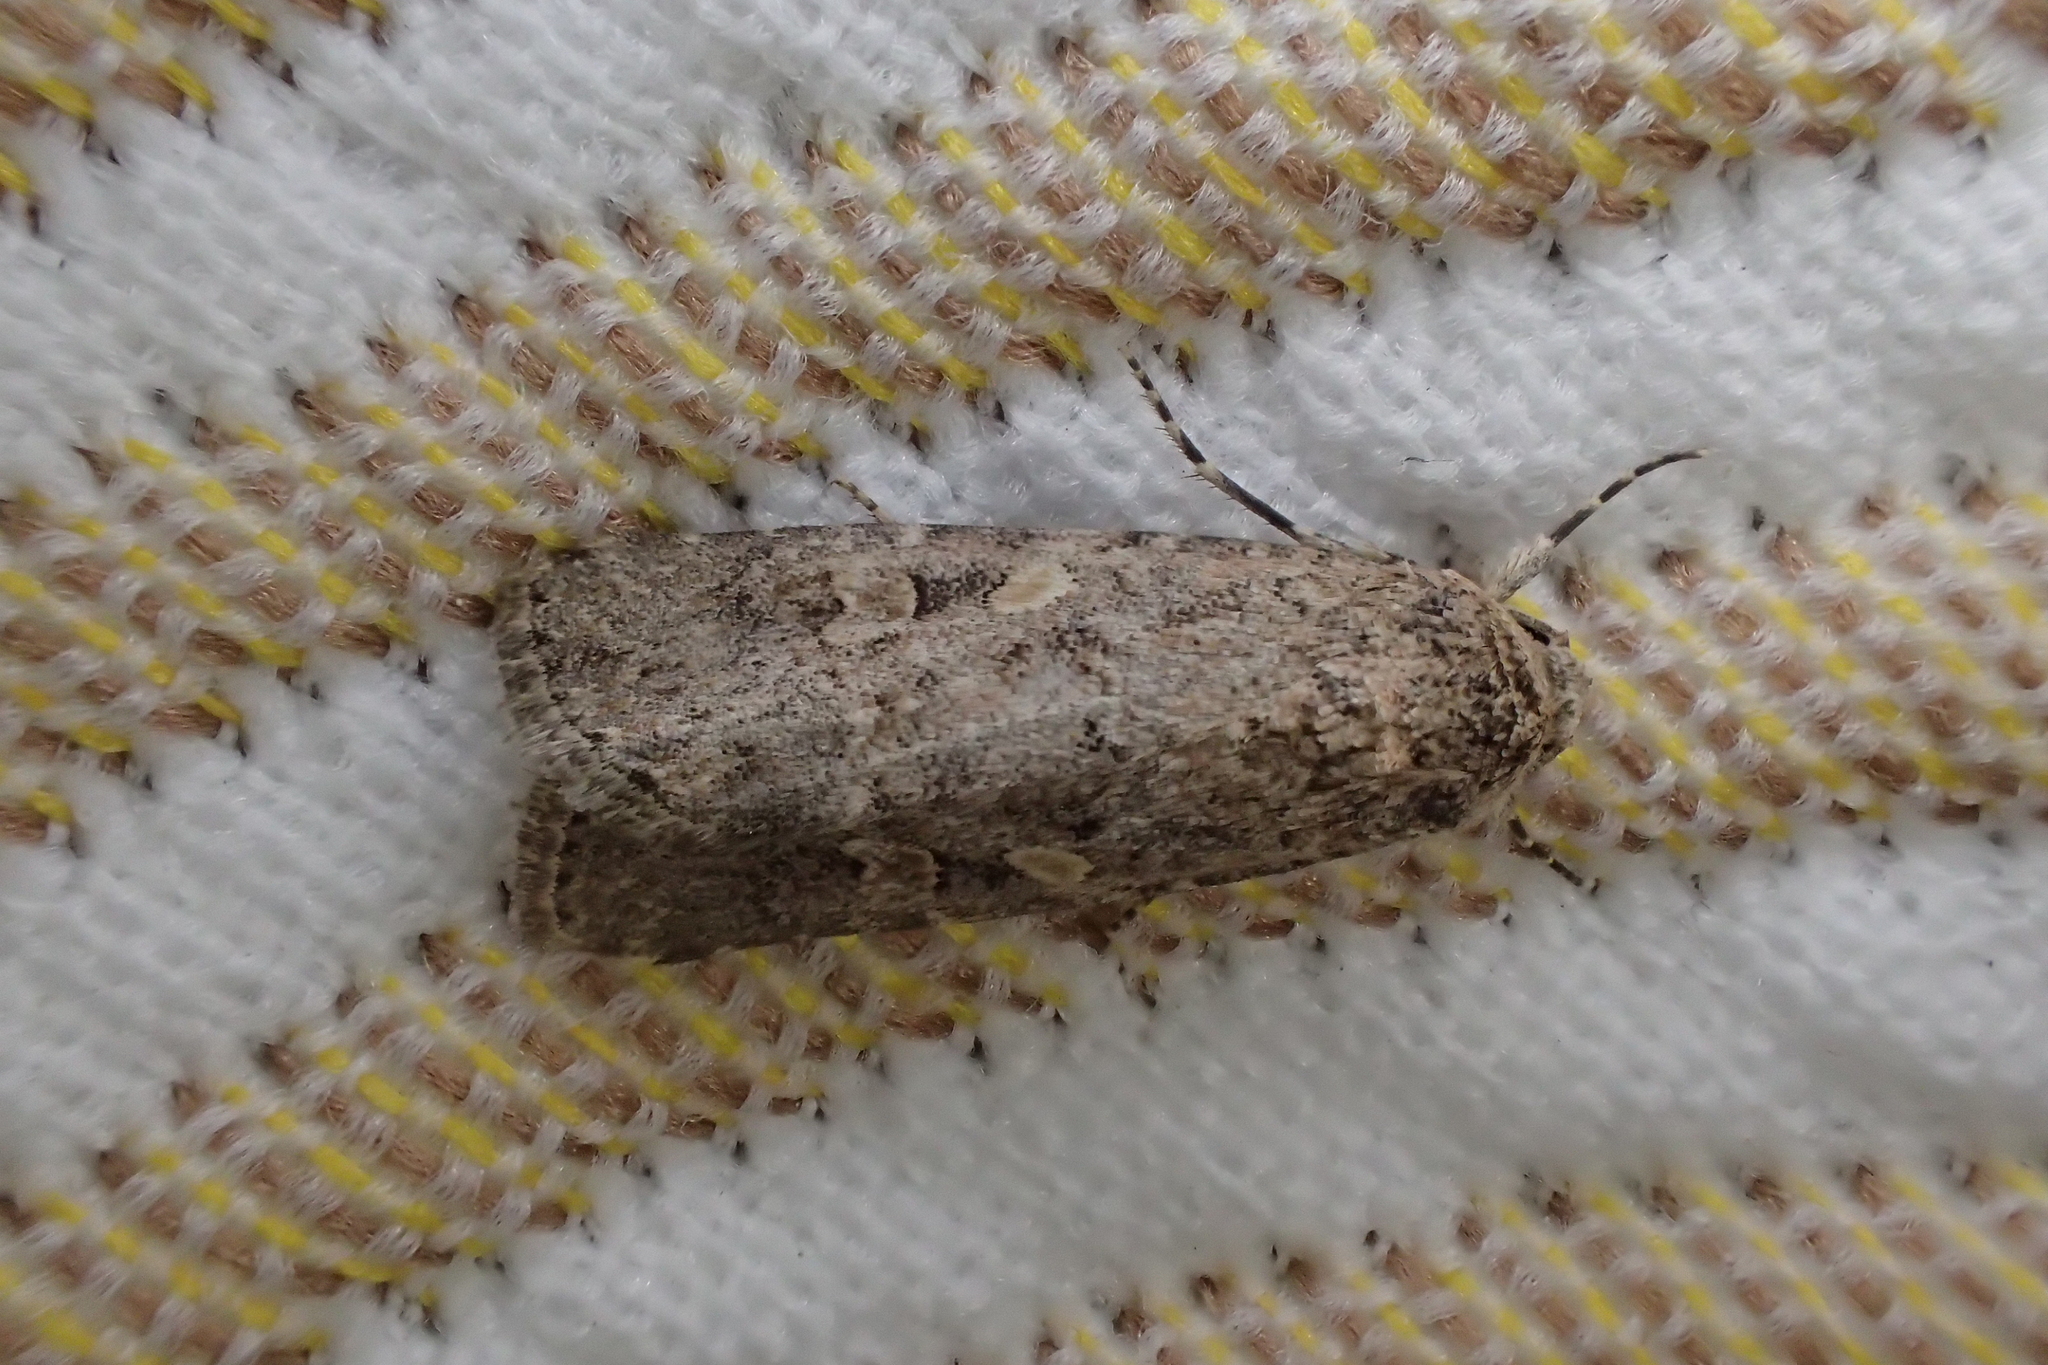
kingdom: Animalia
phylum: Arthropoda
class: Insecta
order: Lepidoptera
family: Noctuidae
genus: Spodoptera
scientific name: Spodoptera exigua
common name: Beet armyworm
